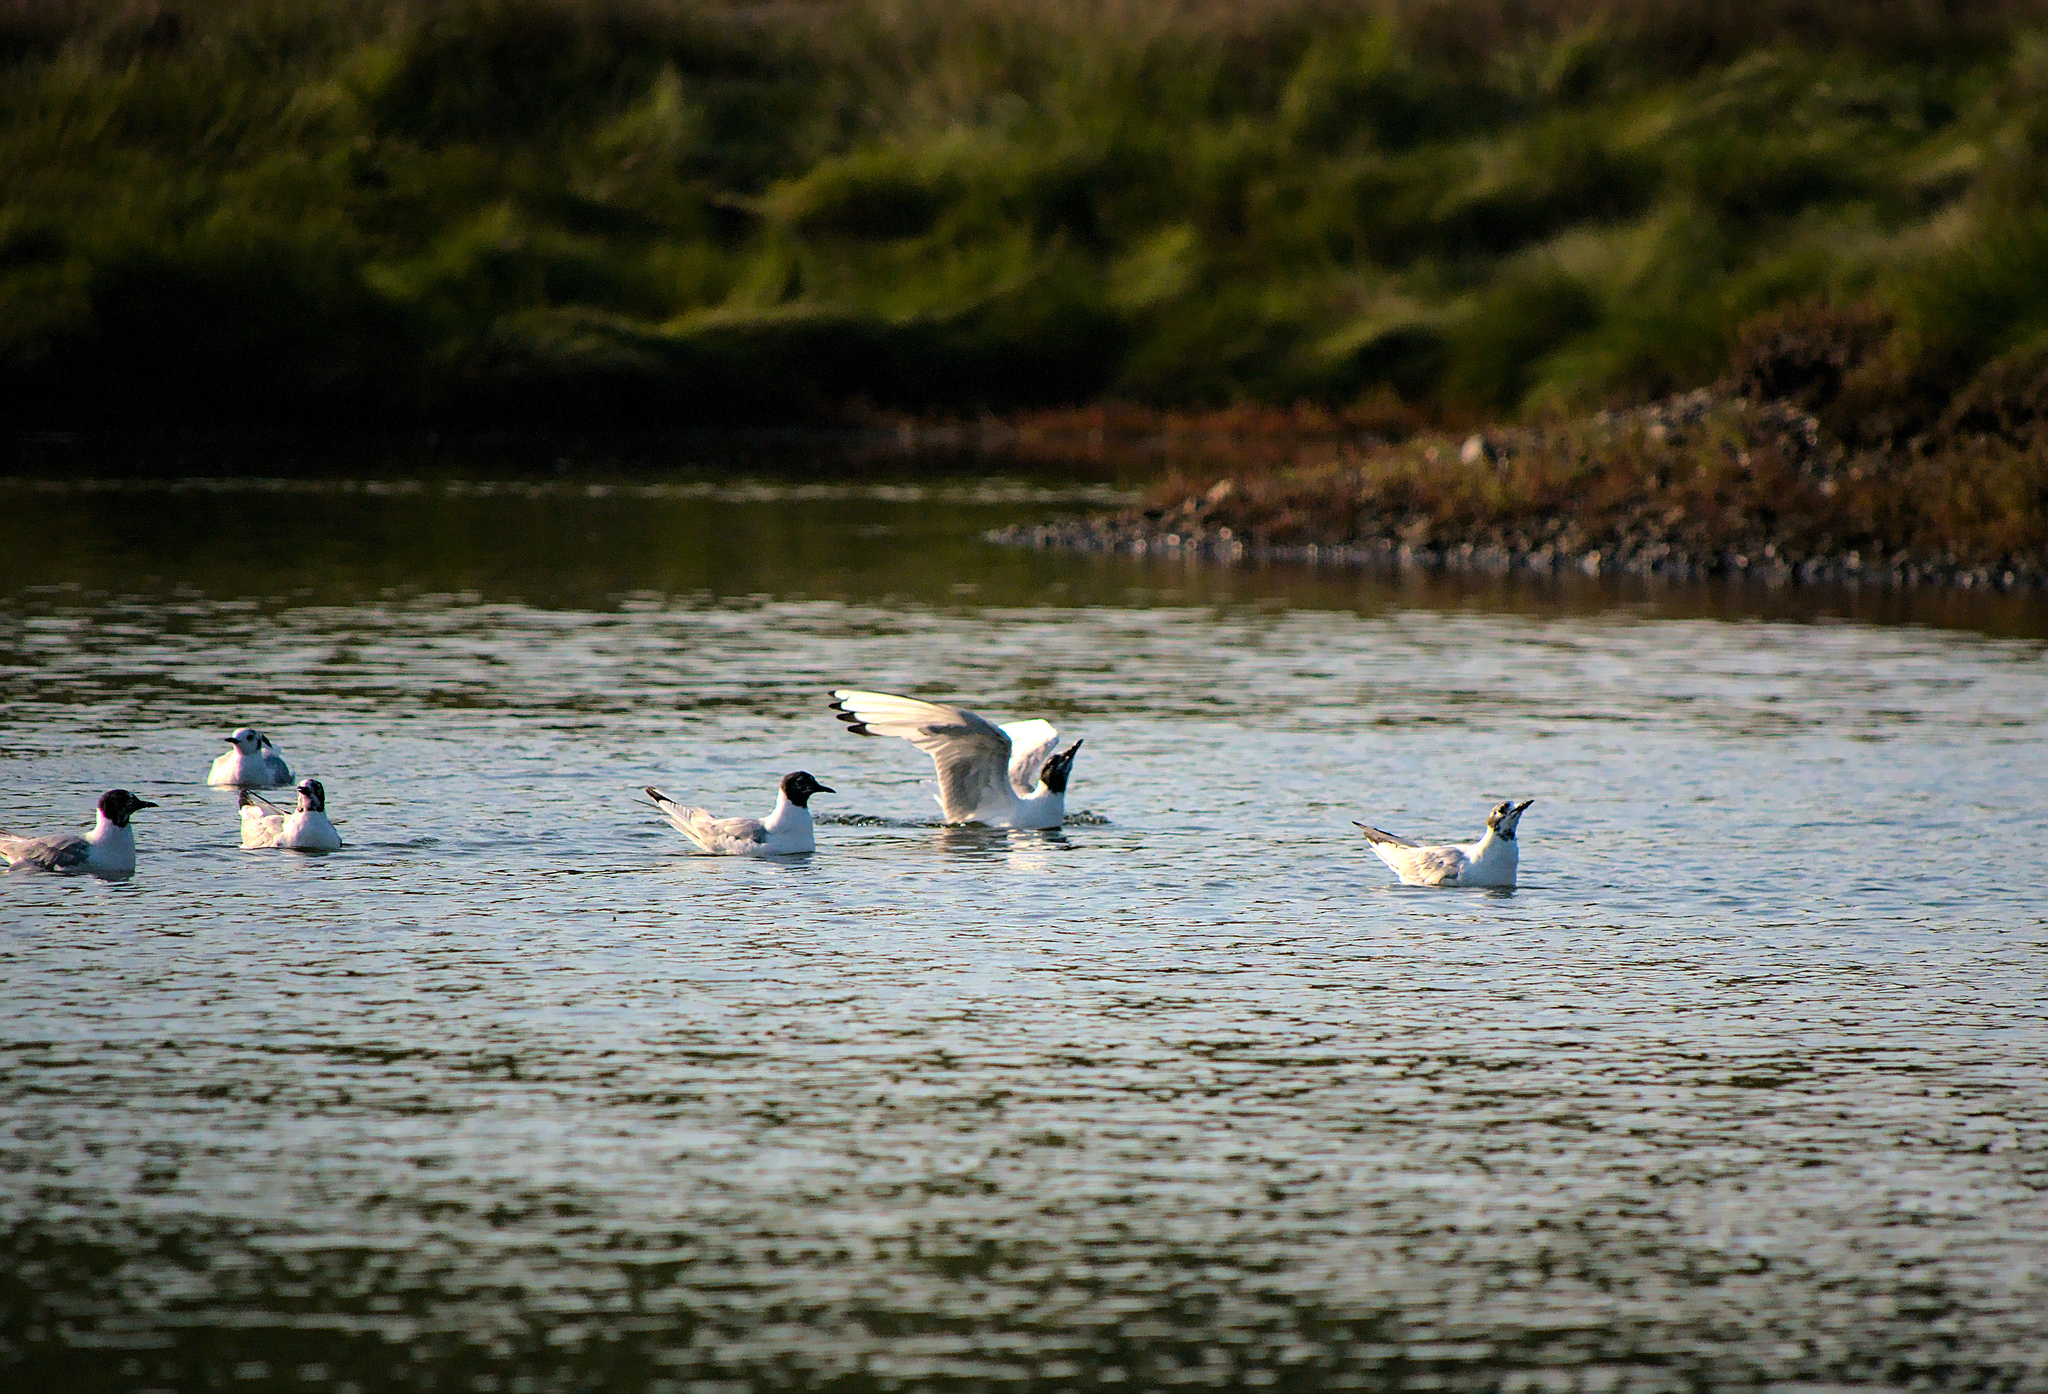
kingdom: Animalia
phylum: Chordata
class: Aves
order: Charadriiformes
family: Laridae
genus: Chroicocephalus
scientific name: Chroicocephalus philadelphia
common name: Bonaparte's gull
